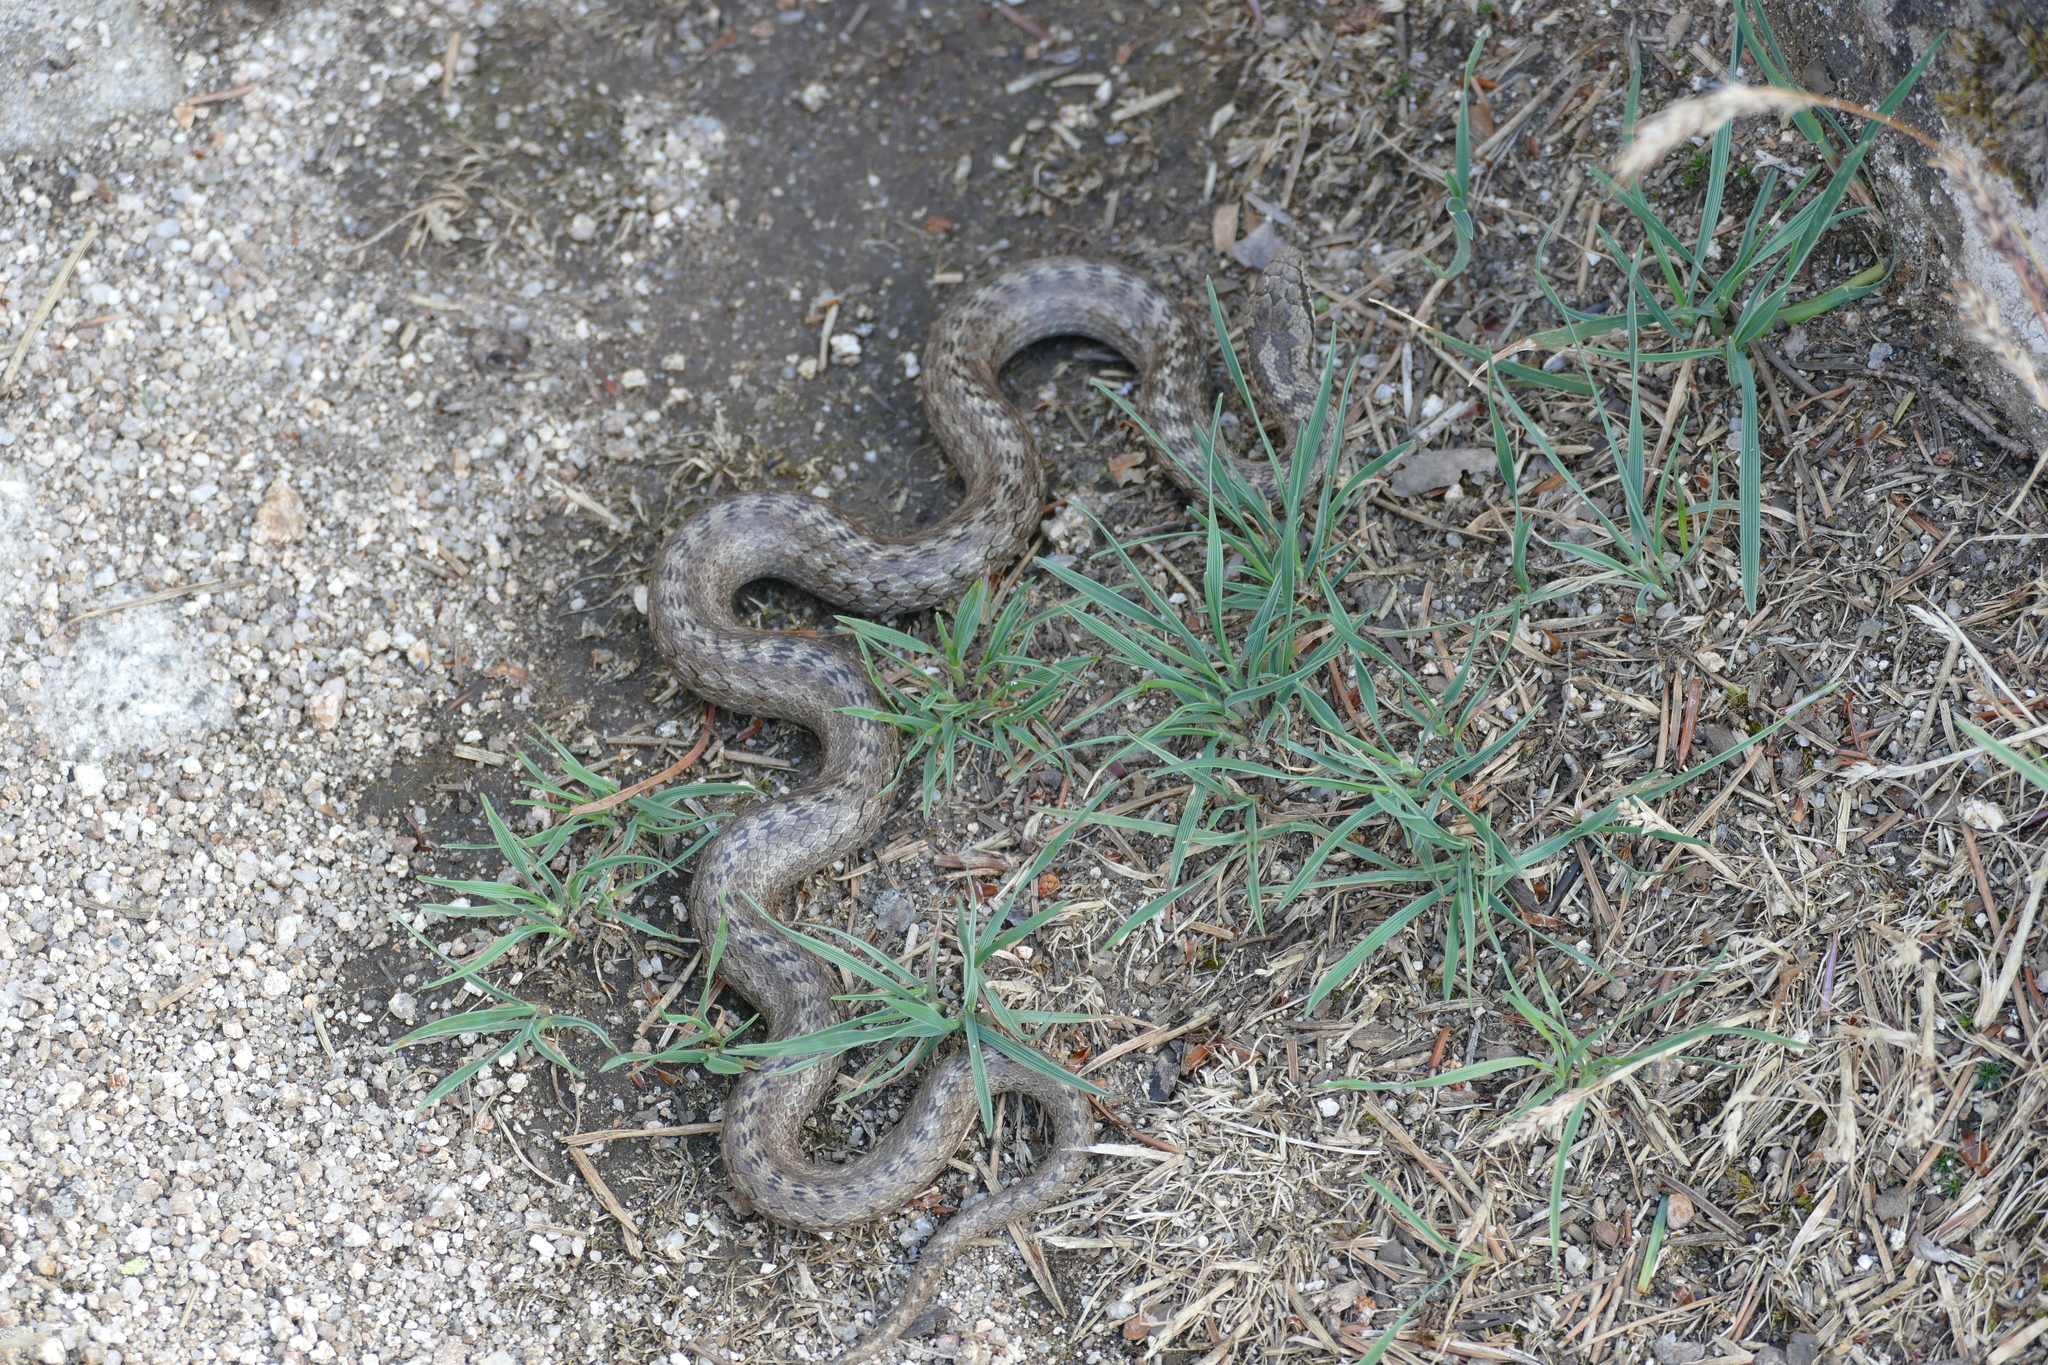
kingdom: Animalia
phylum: Chordata
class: Squamata
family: Colubridae
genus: Coronella
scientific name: Coronella austriaca
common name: Smooth snake
